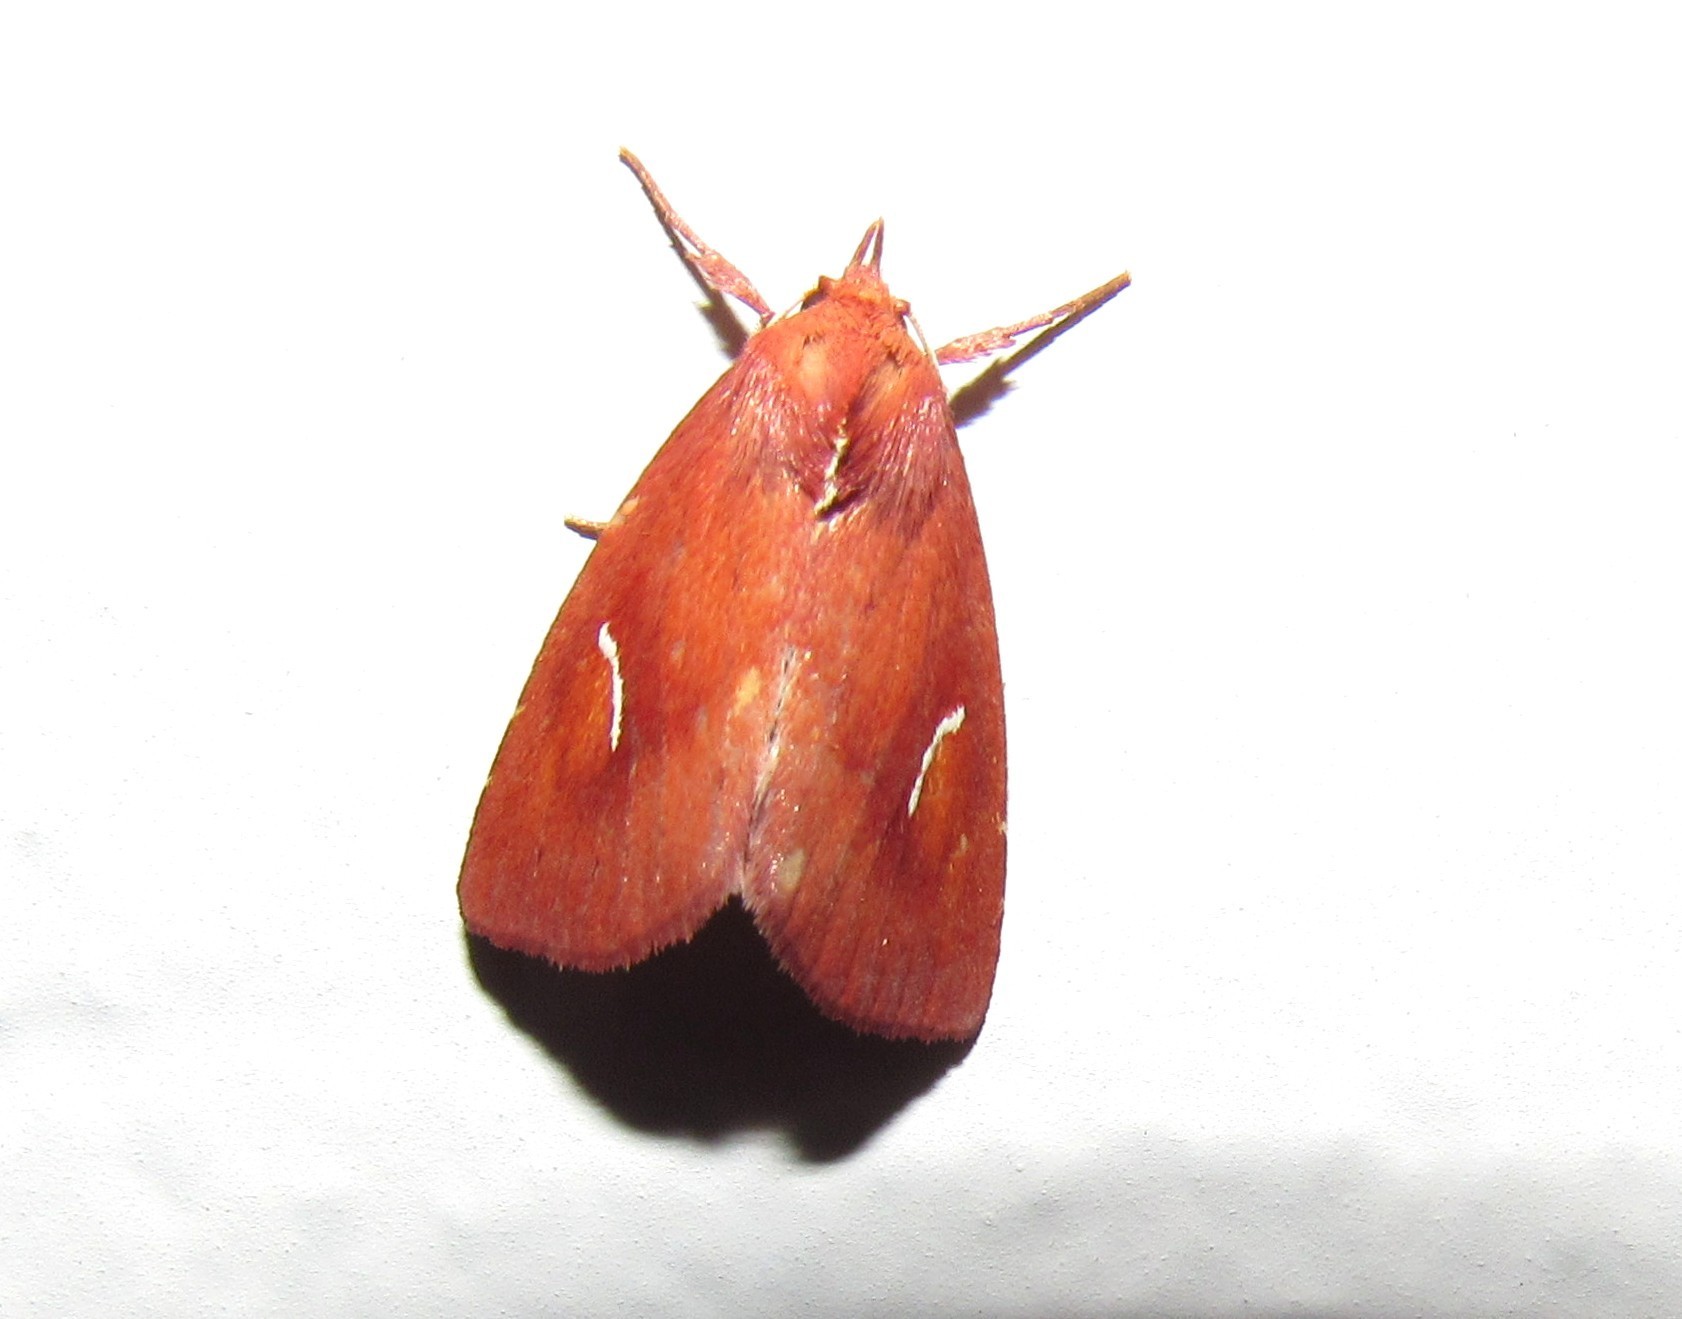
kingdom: Animalia
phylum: Arthropoda
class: Insecta
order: Lepidoptera
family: Noctuidae
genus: Macapta
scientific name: Macapta obliqua
